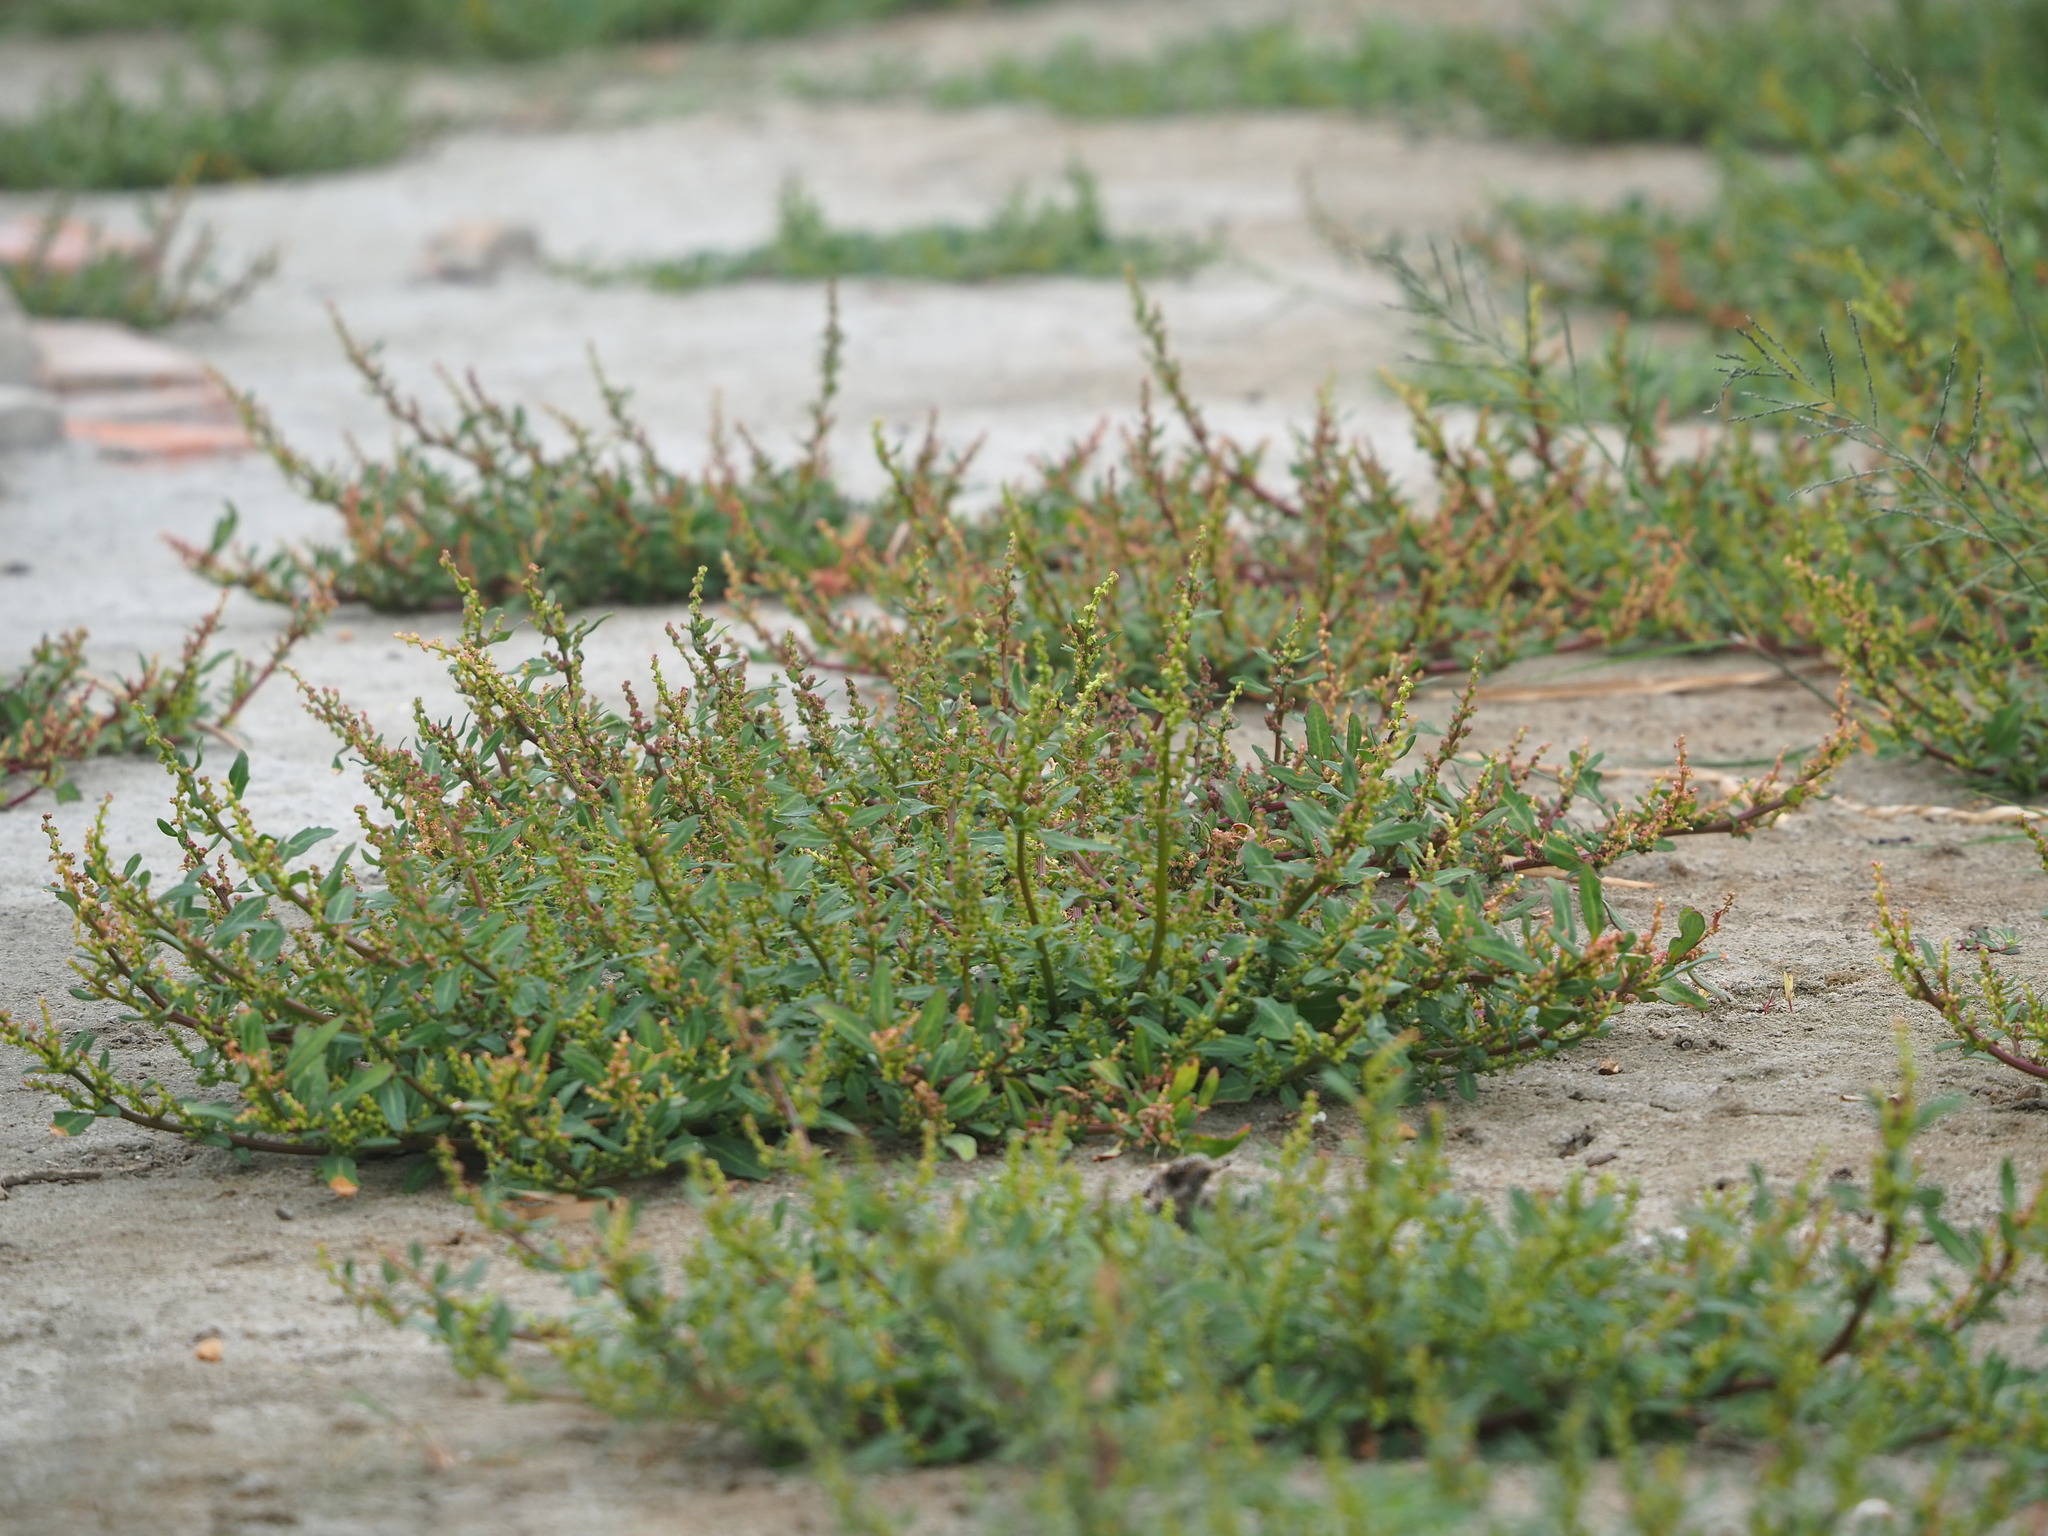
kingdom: Plantae
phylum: Tracheophyta
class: Magnoliopsida
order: Caryophyllales
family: Amaranthaceae
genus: Oxybasis
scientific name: Oxybasis glauca
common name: Glaucous goosefoot
